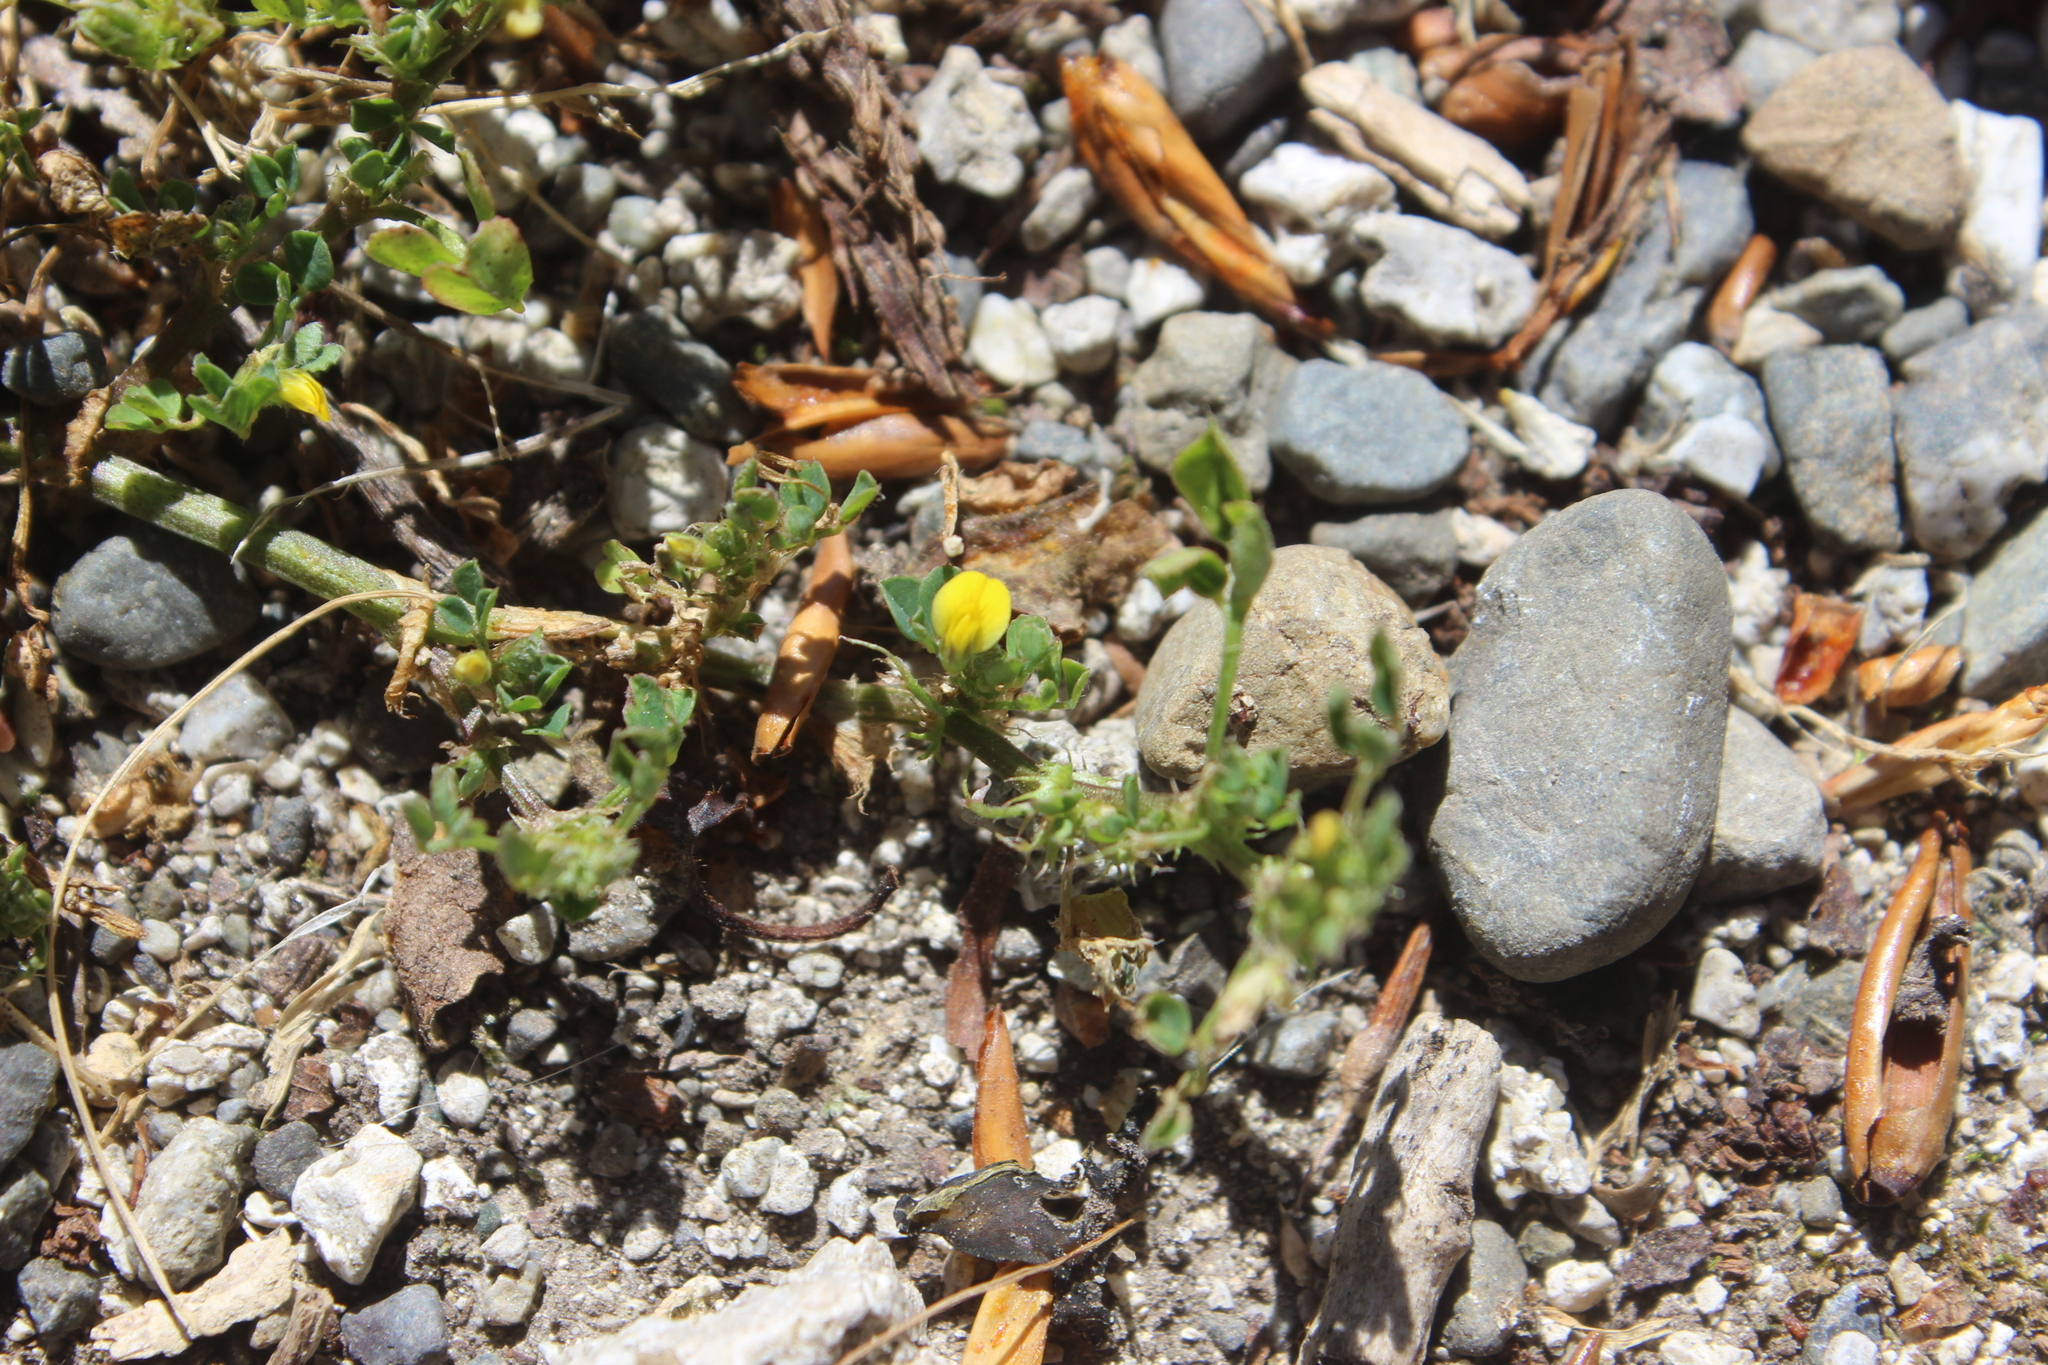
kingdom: Plantae
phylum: Tracheophyta
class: Magnoliopsida
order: Fabales
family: Fabaceae
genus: Trifolium
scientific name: Trifolium dubium
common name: Suckling clover
